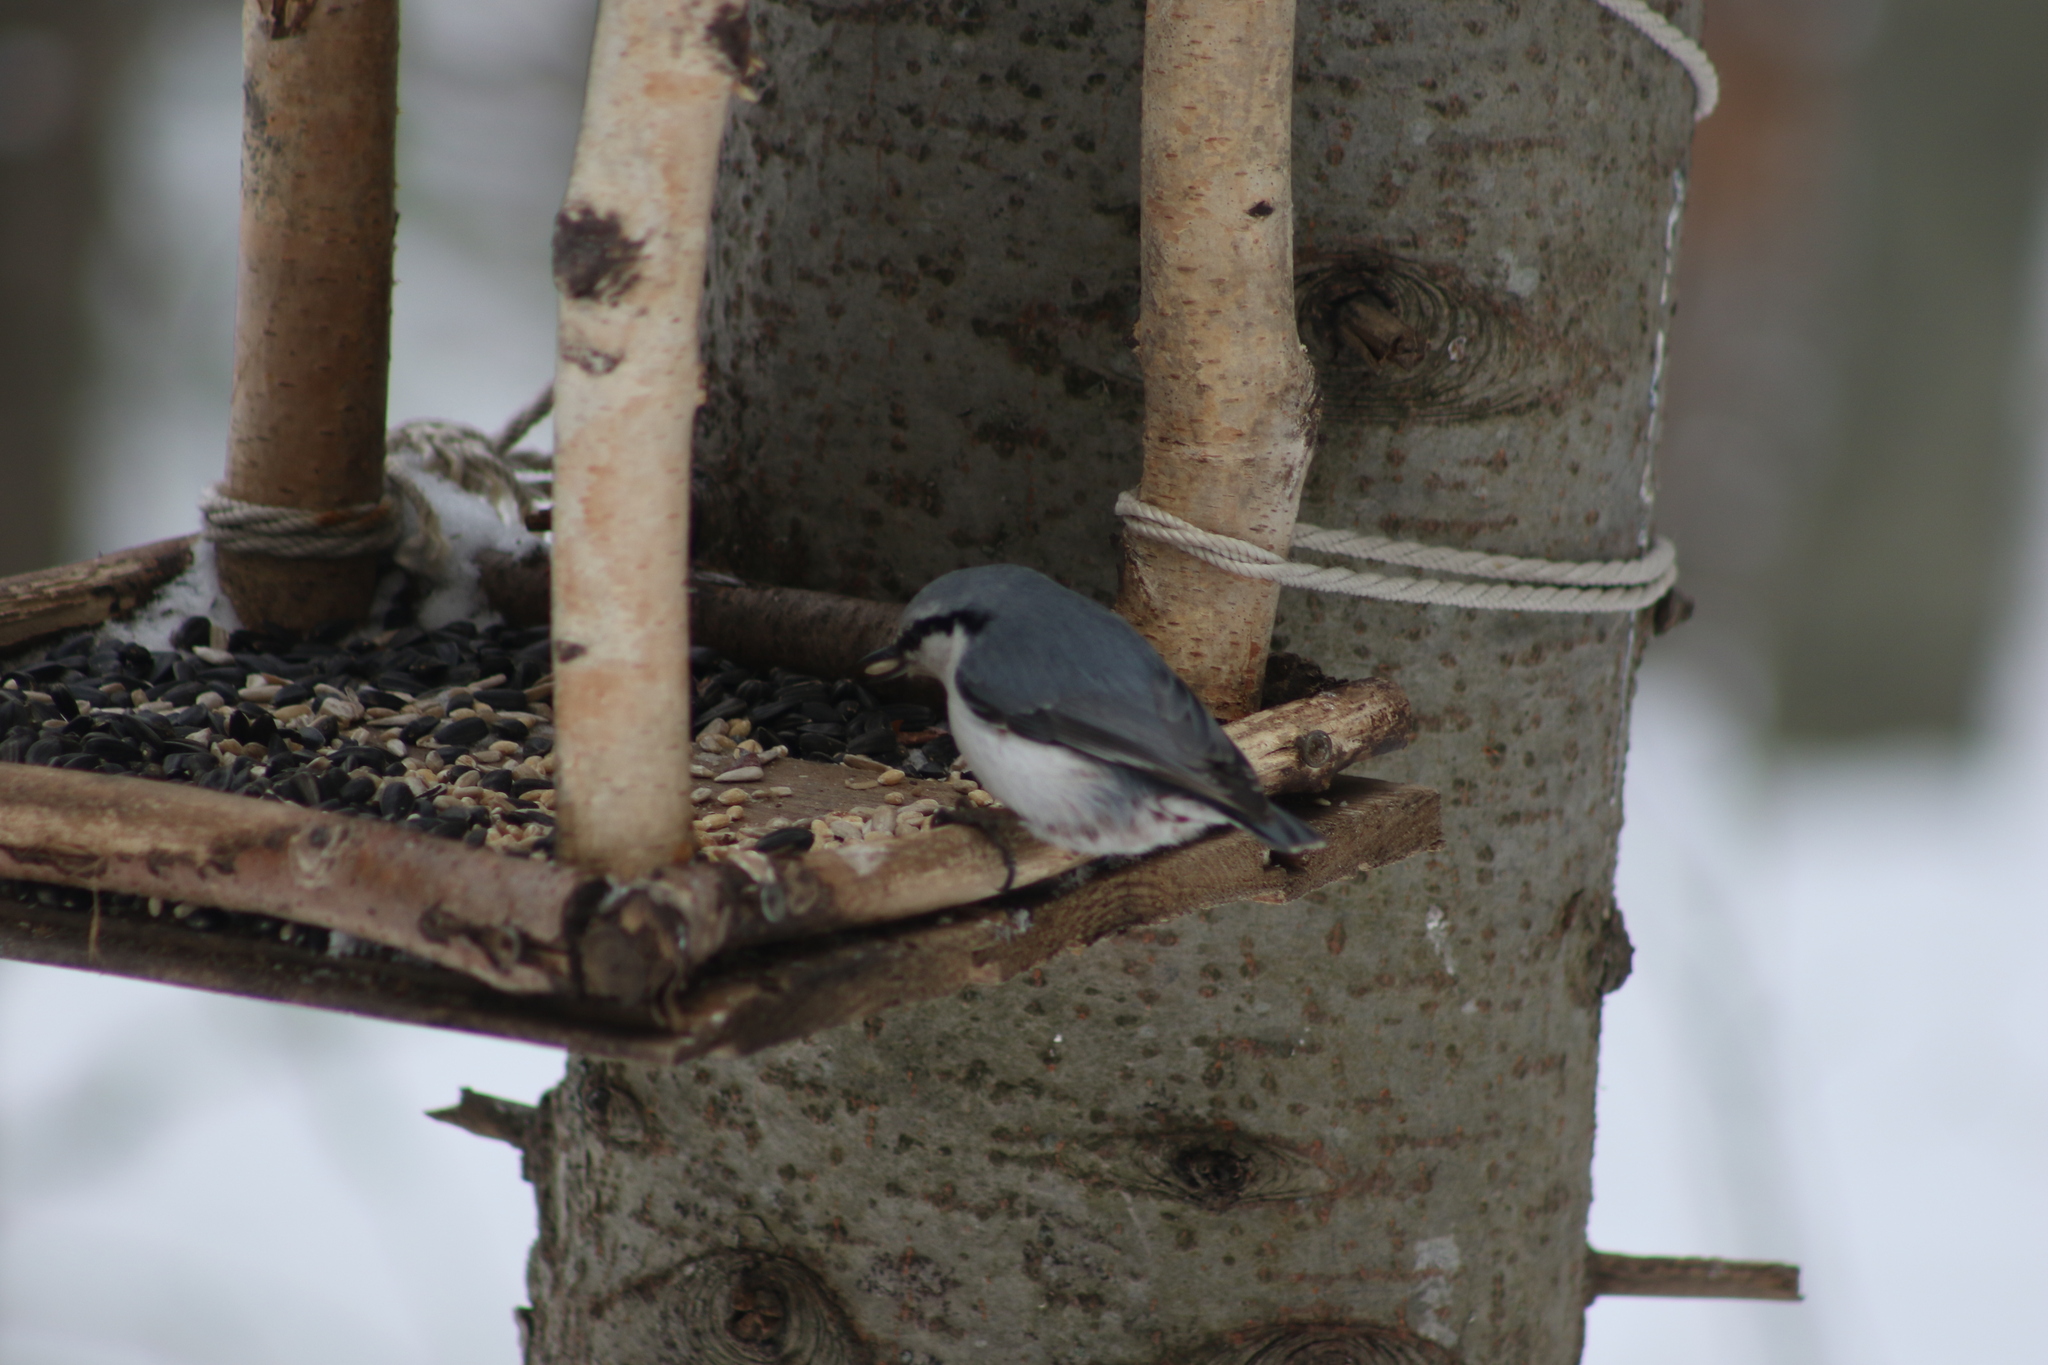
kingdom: Animalia
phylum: Chordata
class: Aves
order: Passeriformes
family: Sittidae
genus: Sitta
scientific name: Sitta europaea
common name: Eurasian nuthatch
